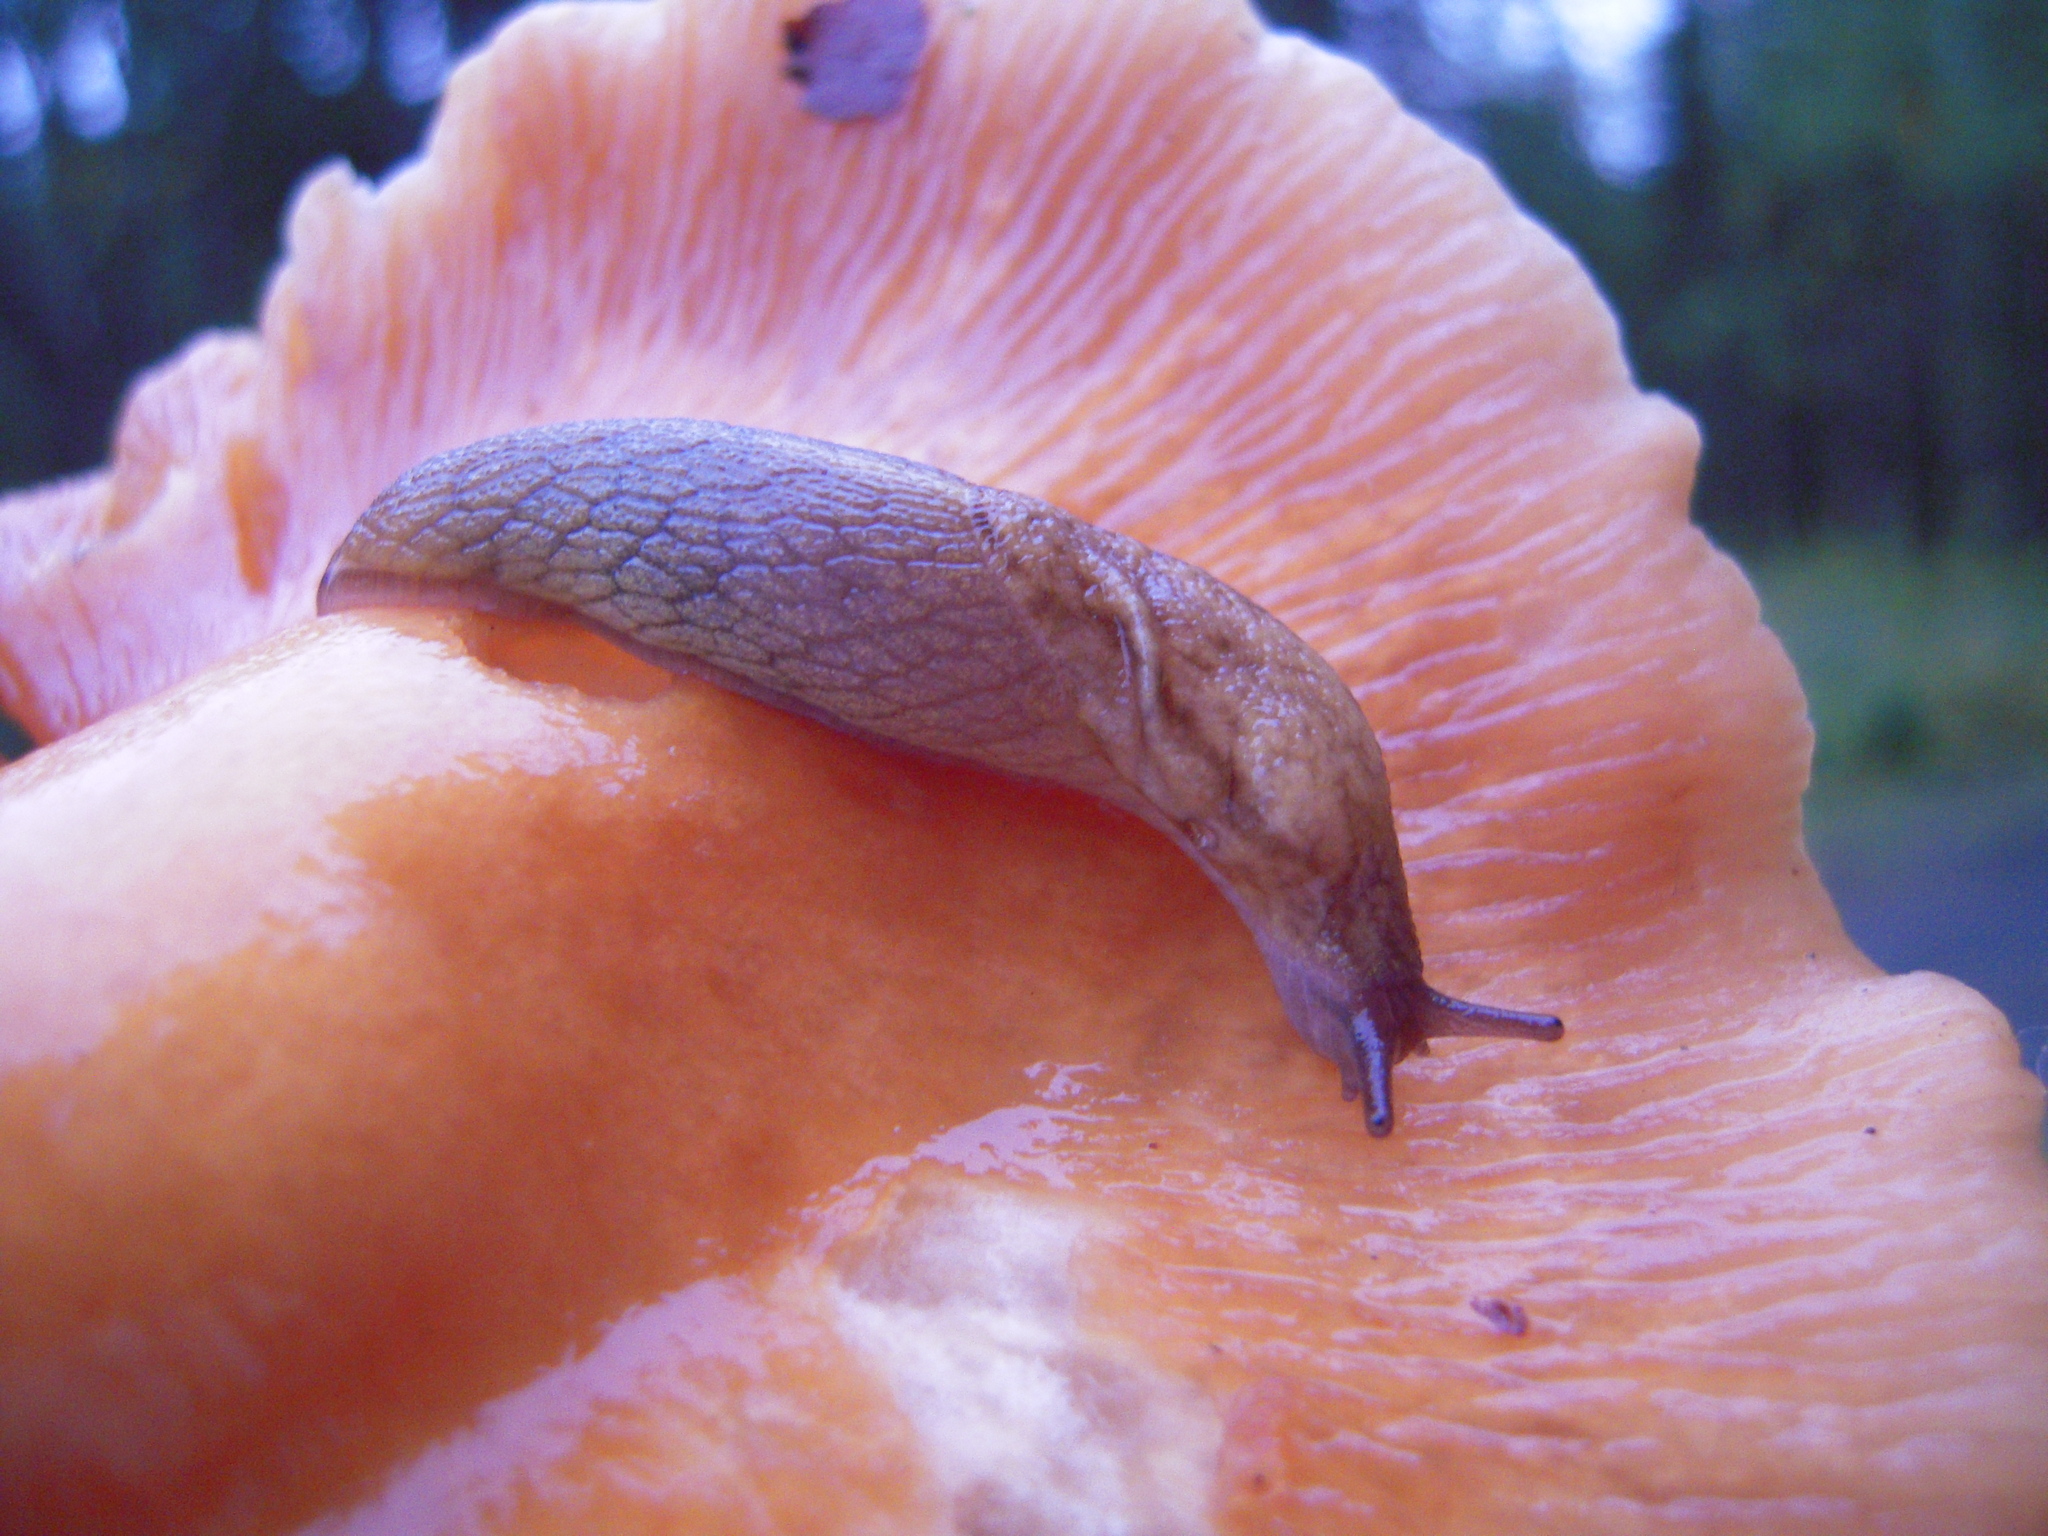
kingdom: Animalia
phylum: Mollusca
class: Gastropoda
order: Stylommatophora
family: Ariolimacidae
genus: Prophysaon
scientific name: Prophysaon andersonii
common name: Reticulate taildropper
